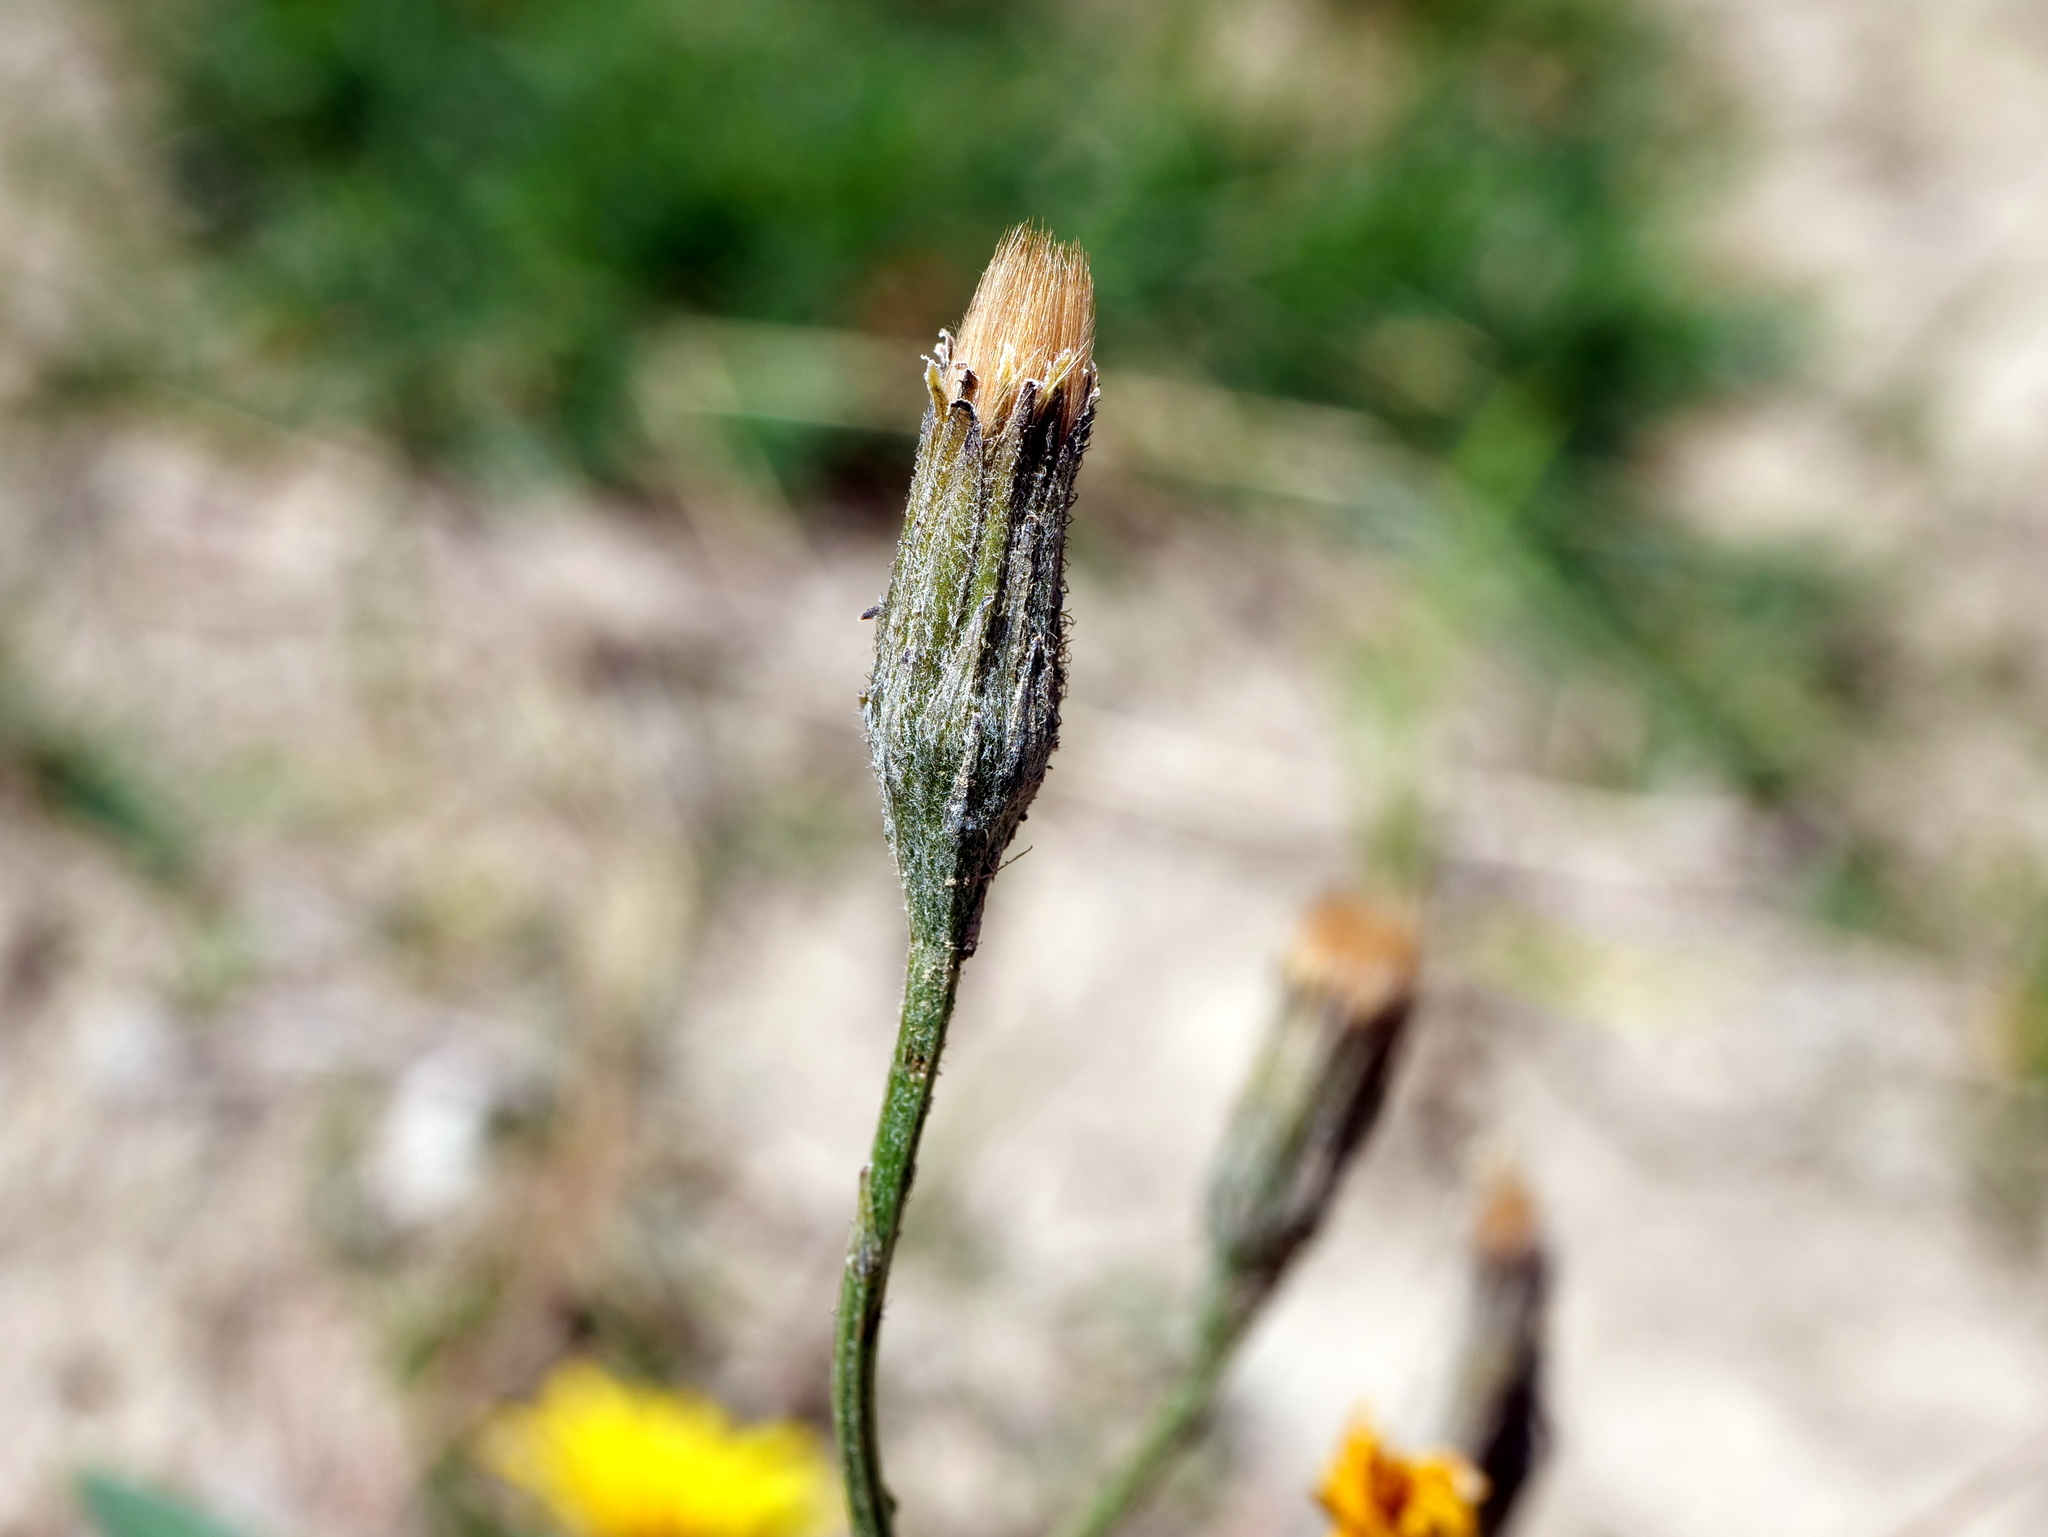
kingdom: Plantae
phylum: Tracheophyta
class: Magnoliopsida
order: Asterales
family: Asteraceae
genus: Scorzoneroides
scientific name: Scorzoneroides autumnalis
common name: Autumn hawkbit
